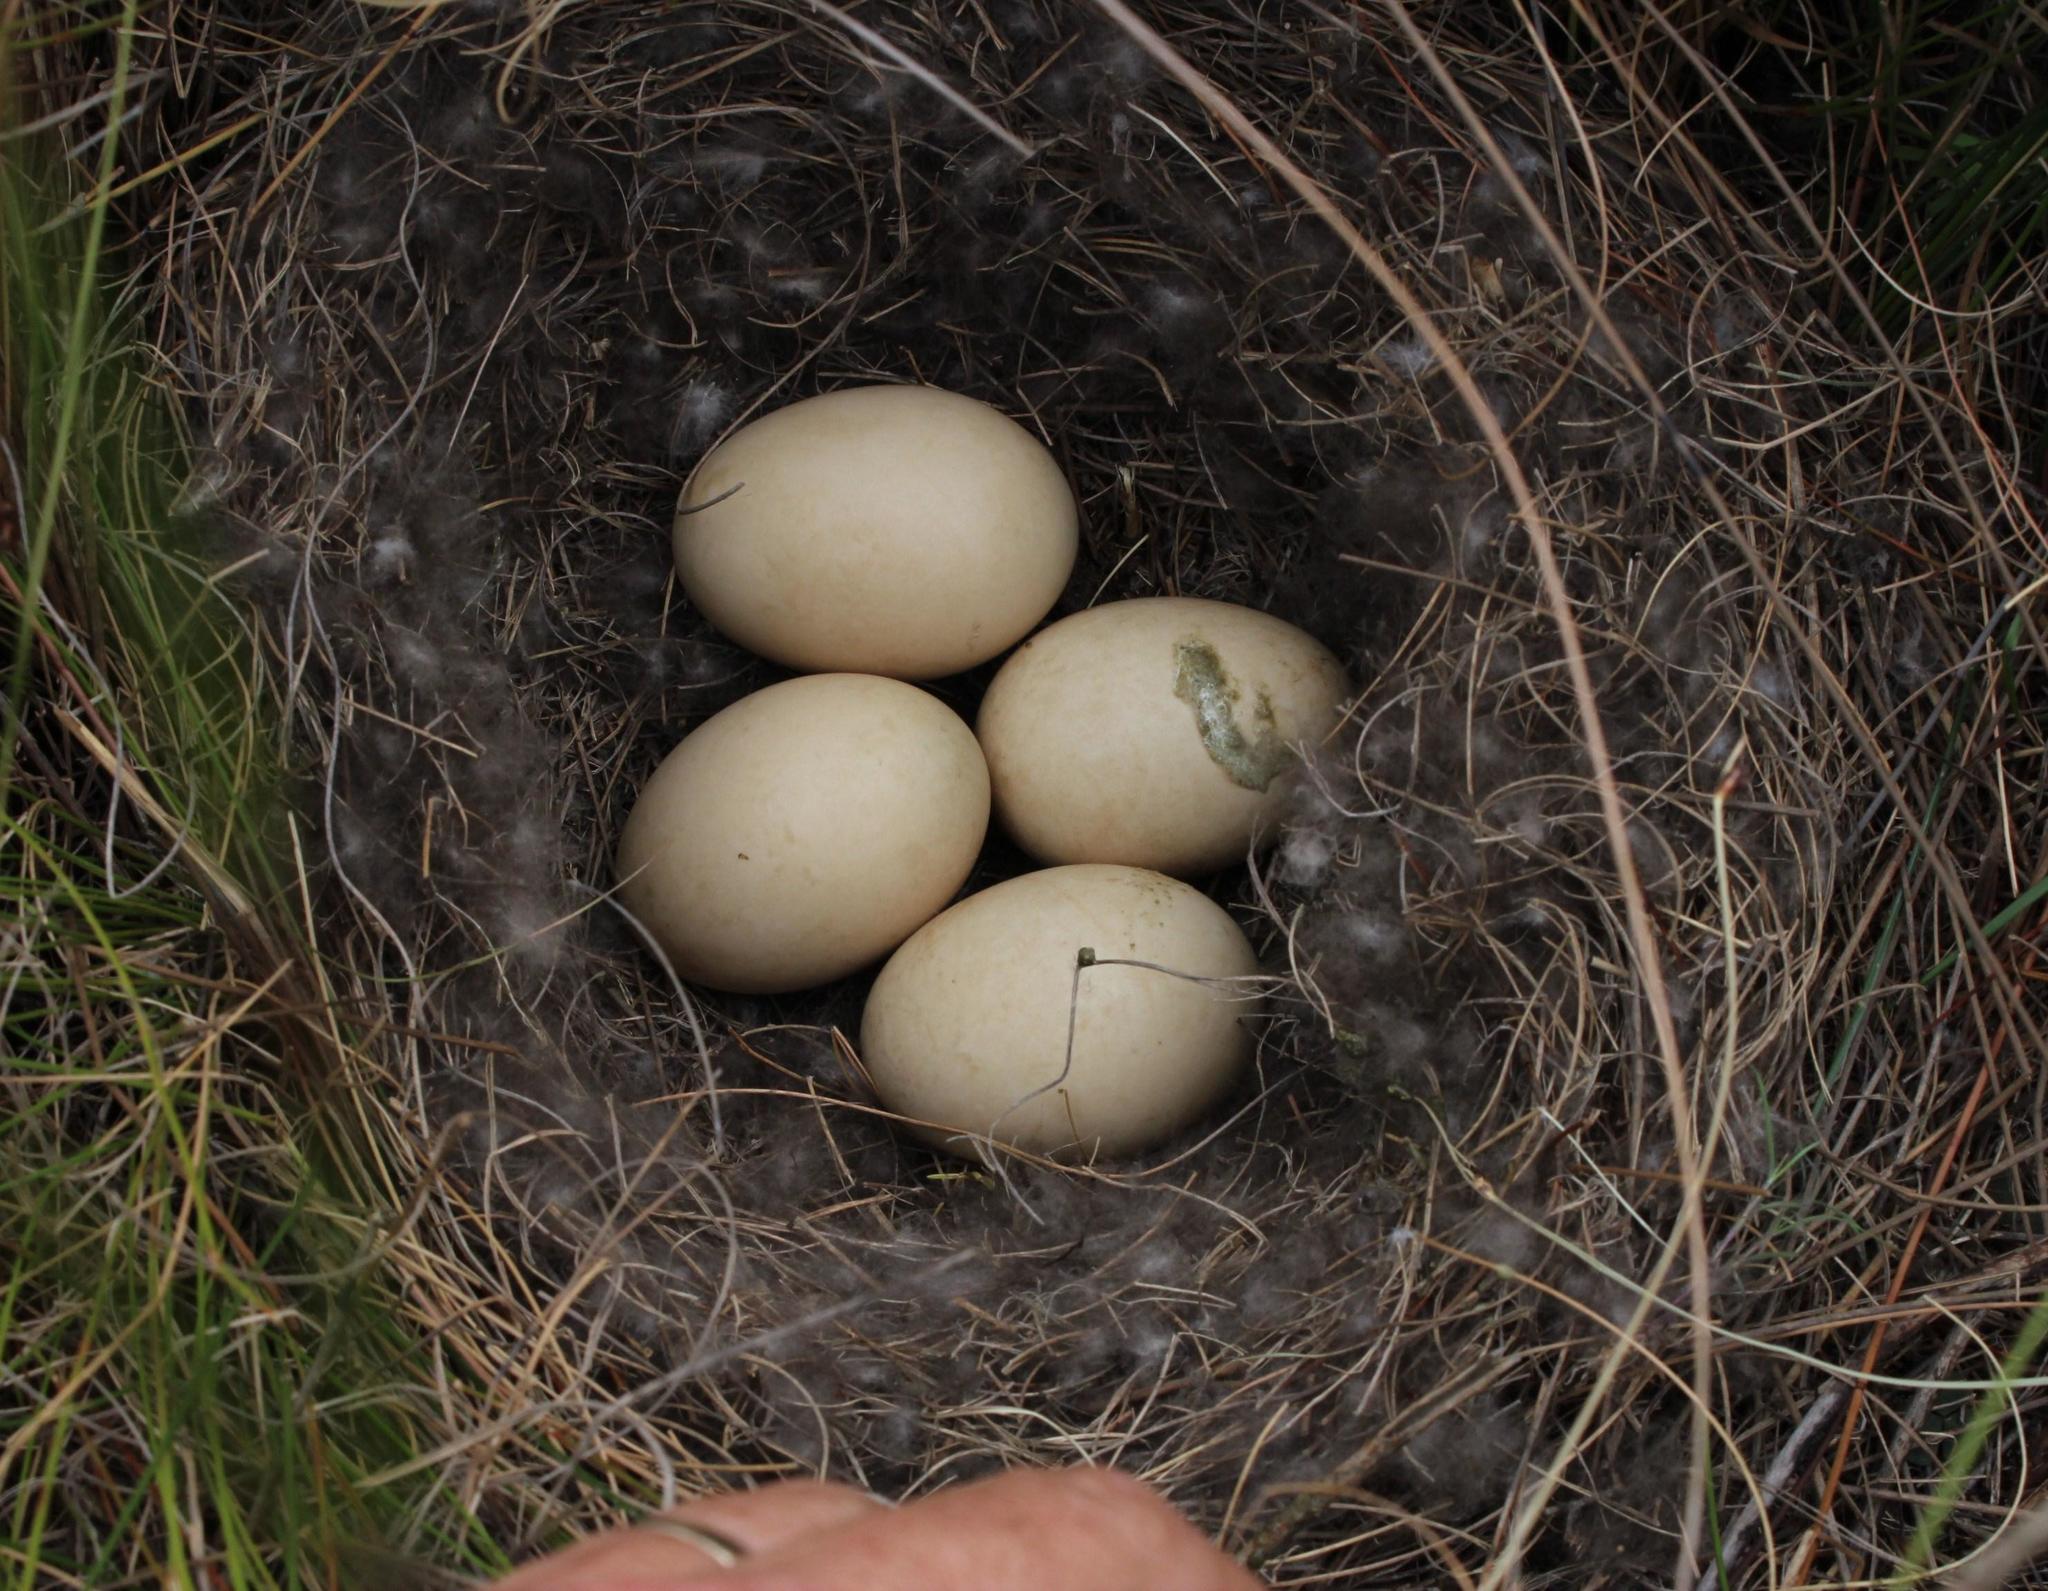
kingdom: Animalia
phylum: Chordata
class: Aves
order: Anseriformes
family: Anatidae
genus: Anas
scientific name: Anas undulata
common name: Yellow-billed duck
